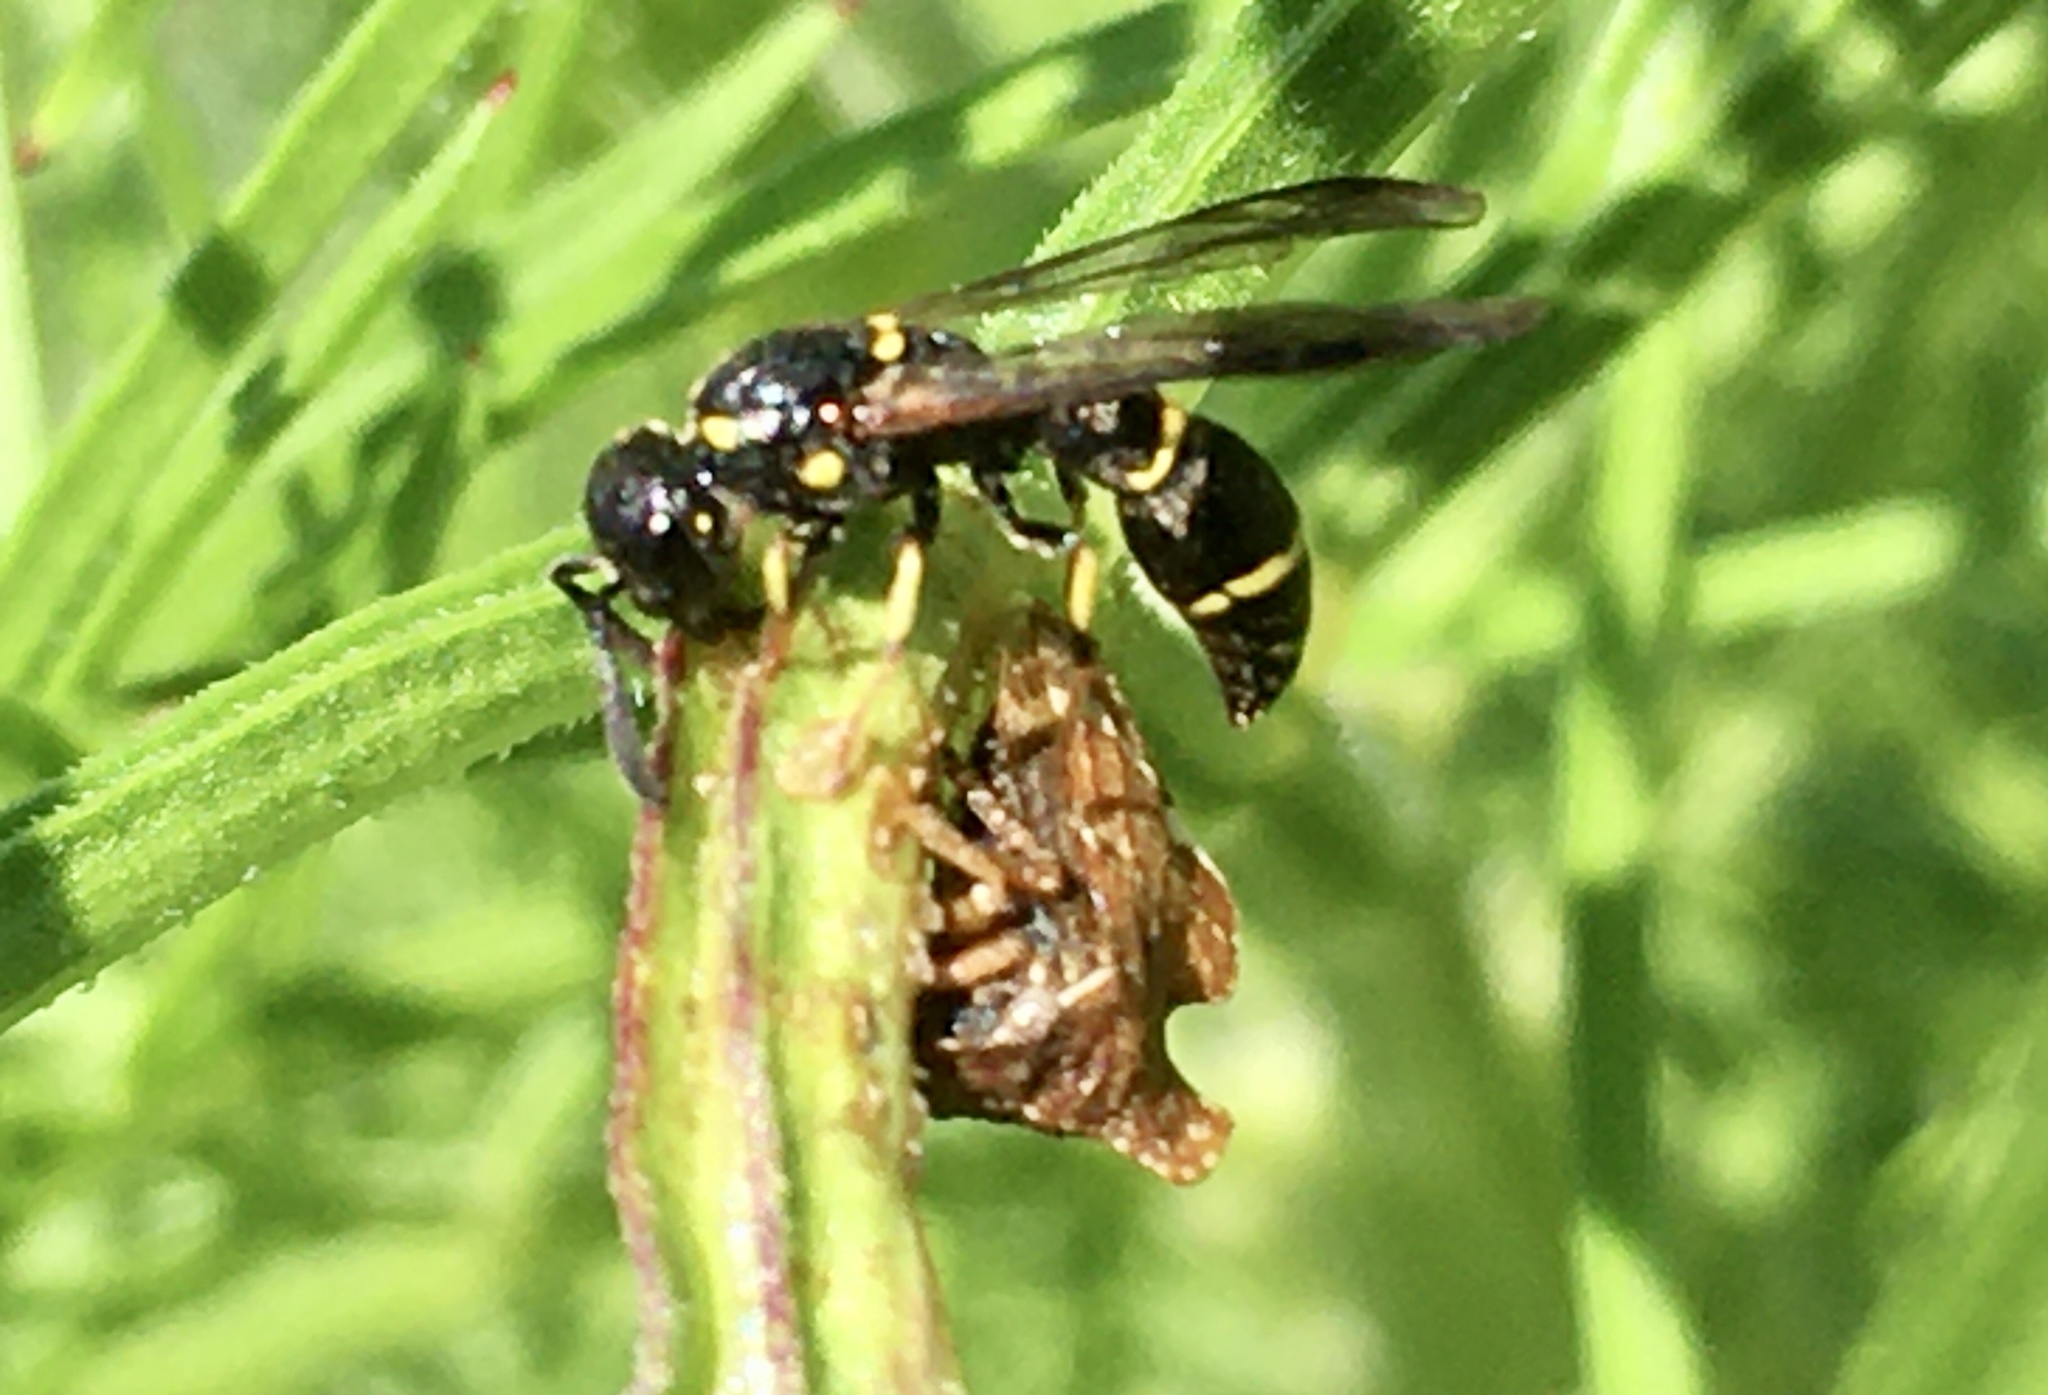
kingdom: Animalia
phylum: Arthropoda
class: Insecta
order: Hemiptera
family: Membracidae
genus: Entylia
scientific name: Entylia carinata
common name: Keeled treehopper
